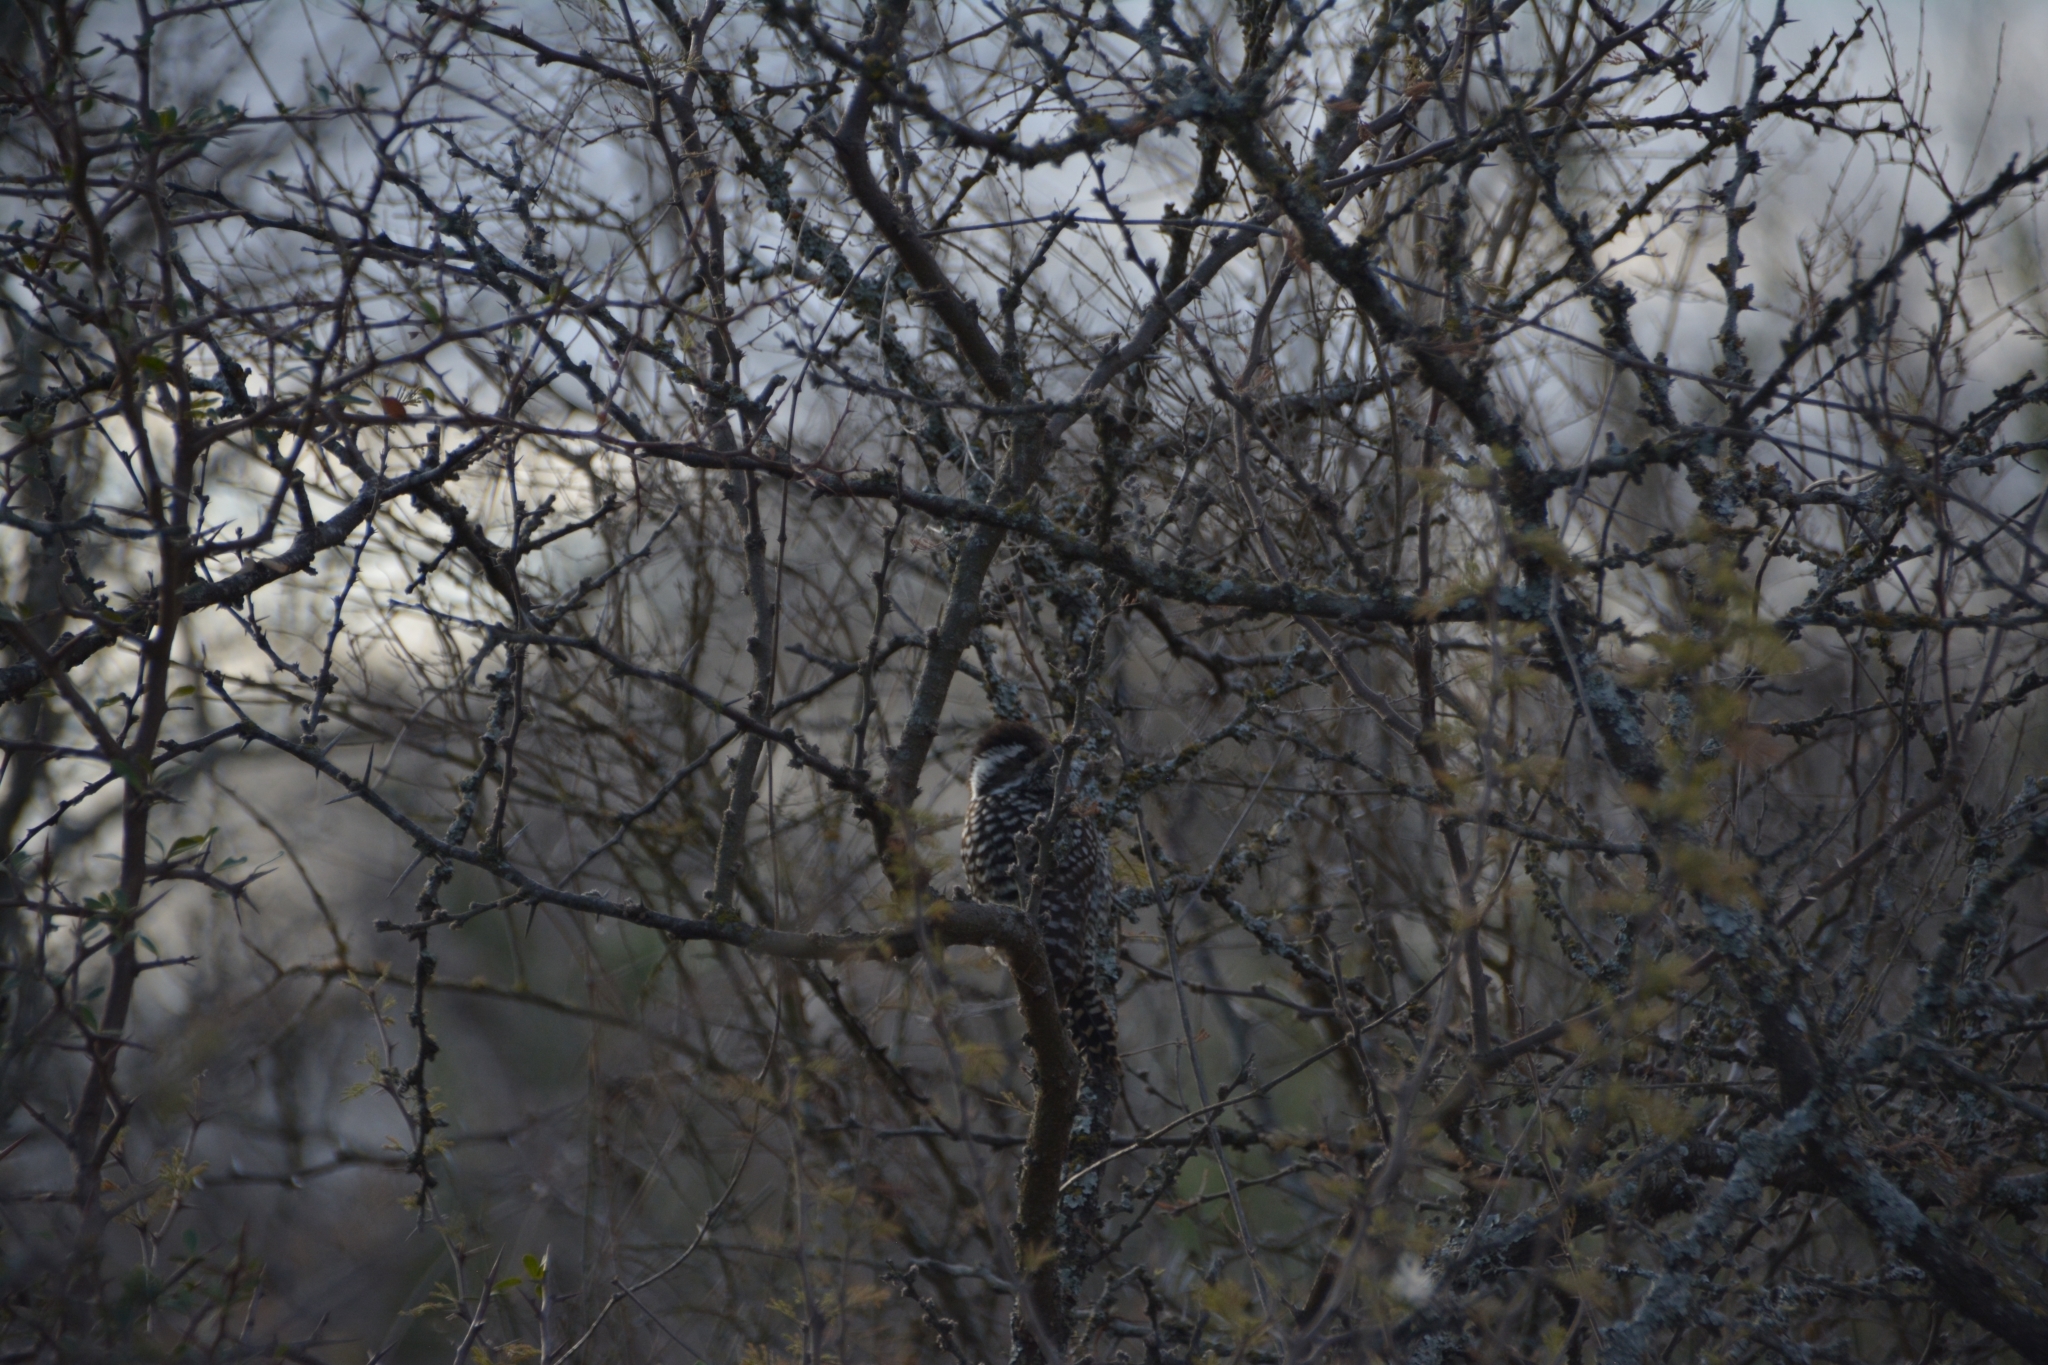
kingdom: Animalia
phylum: Chordata
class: Aves
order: Piciformes
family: Picidae
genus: Veniliornis
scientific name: Veniliornis mixtus
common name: Checkered woodpecker
